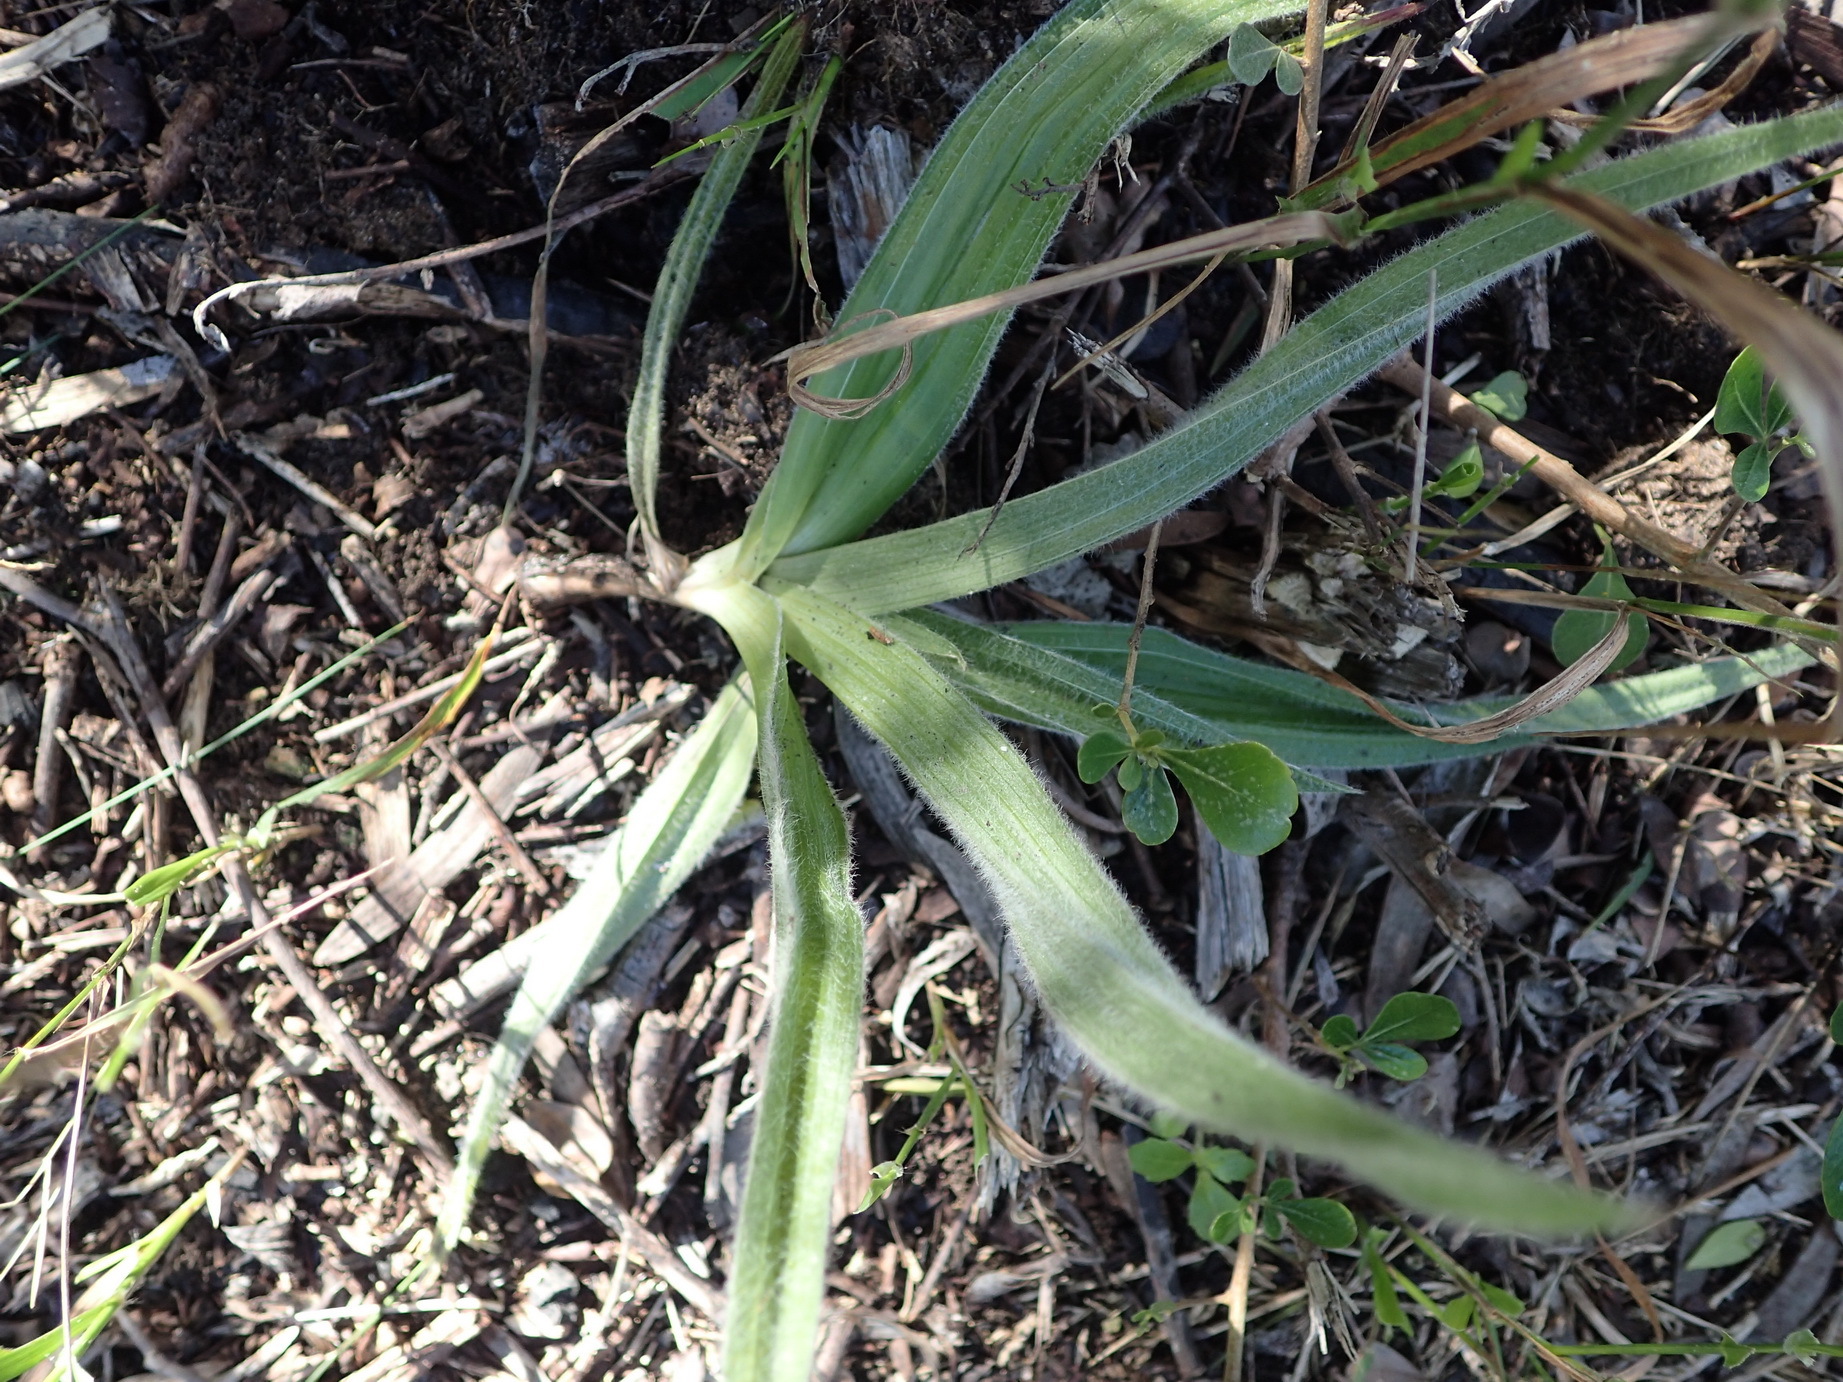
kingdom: Plantae
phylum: Tracheophyta
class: Liliopsida
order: Asparagales
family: Hypoxidaceae
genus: Hypoxis
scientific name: Hypoxis sobolifera
